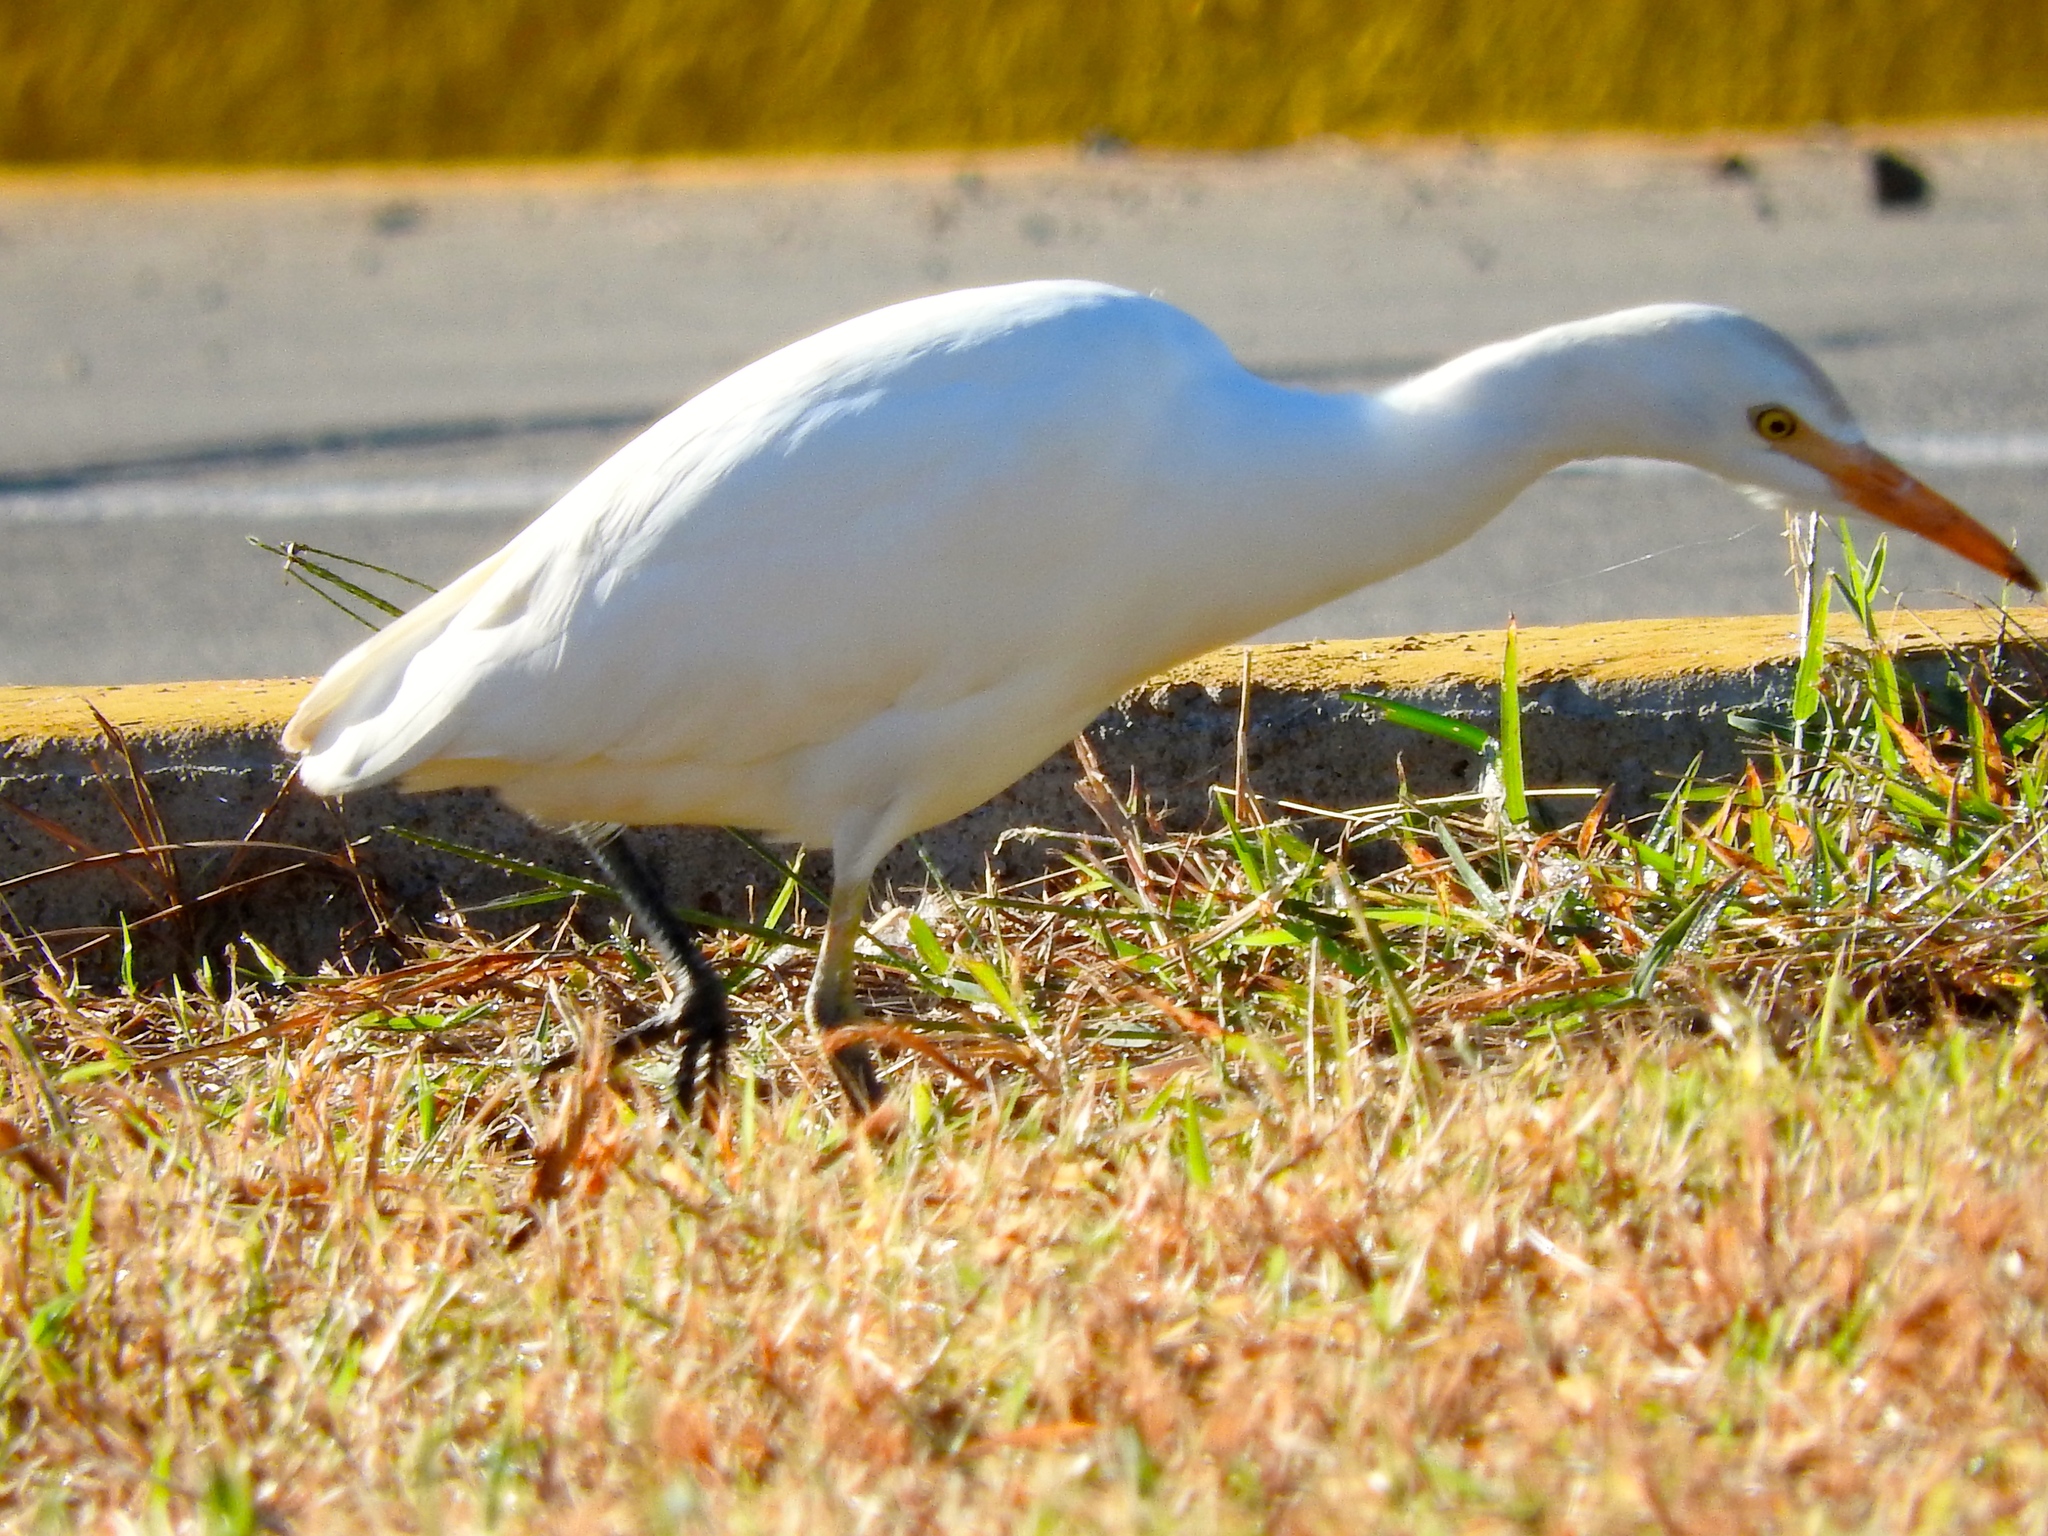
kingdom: Animalia
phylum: Chordata
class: Aves
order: Pelecaniformes
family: Ardeidae
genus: Bubulcus
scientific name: Bubulcus ibis
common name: Cattle egret
